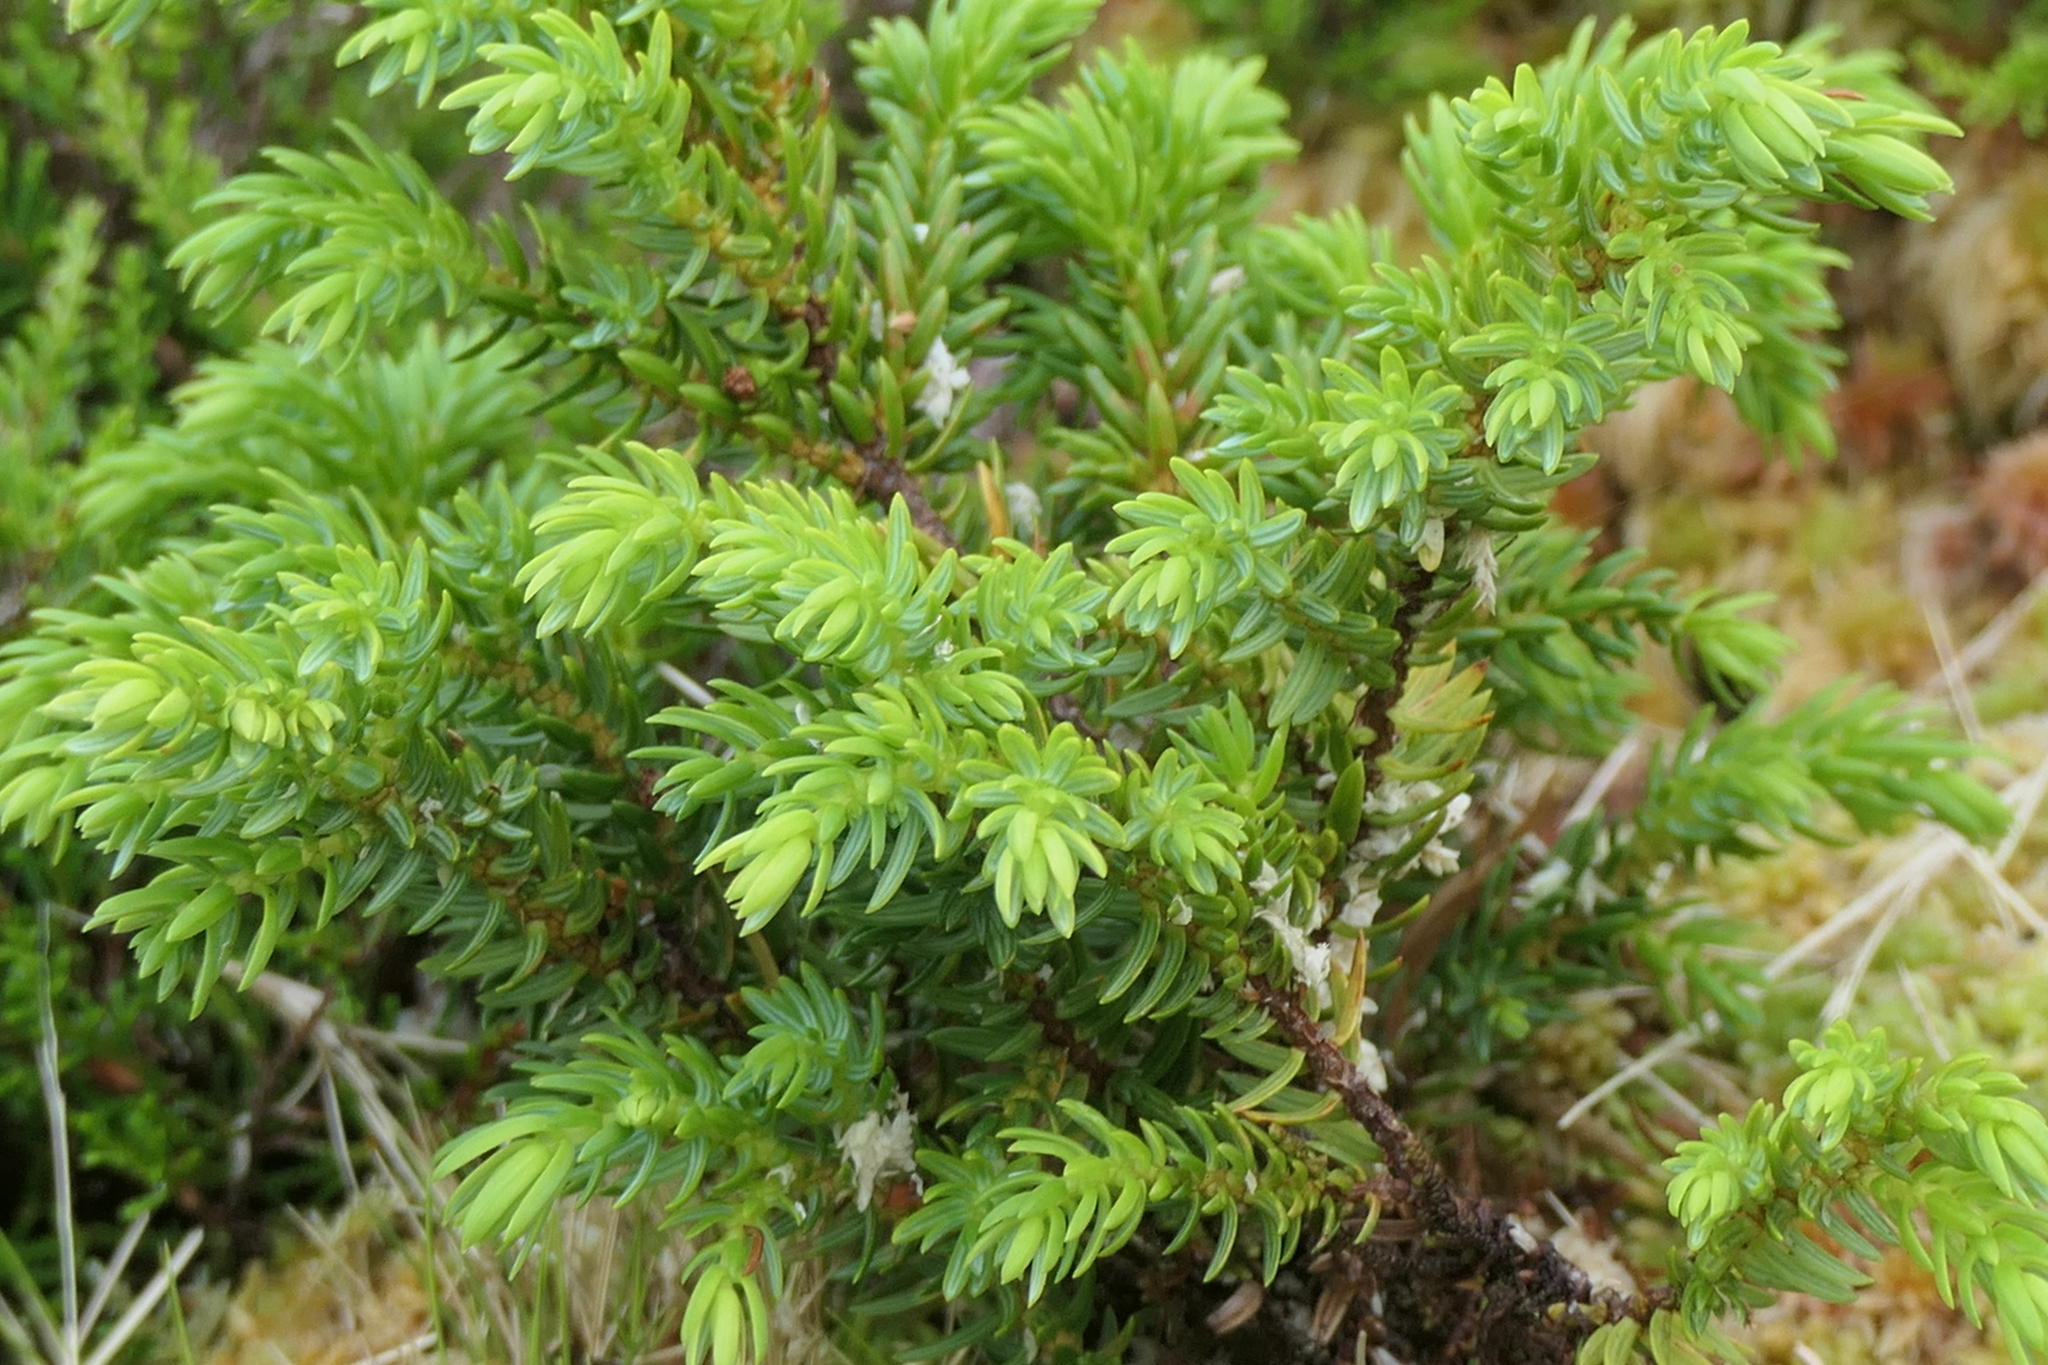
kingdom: Plantae
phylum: Tracheophyta
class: Pinopsida
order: Pinales
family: Cupressaceae
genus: Juniperus
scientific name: Juniperus brevifolia
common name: Azores juniper
